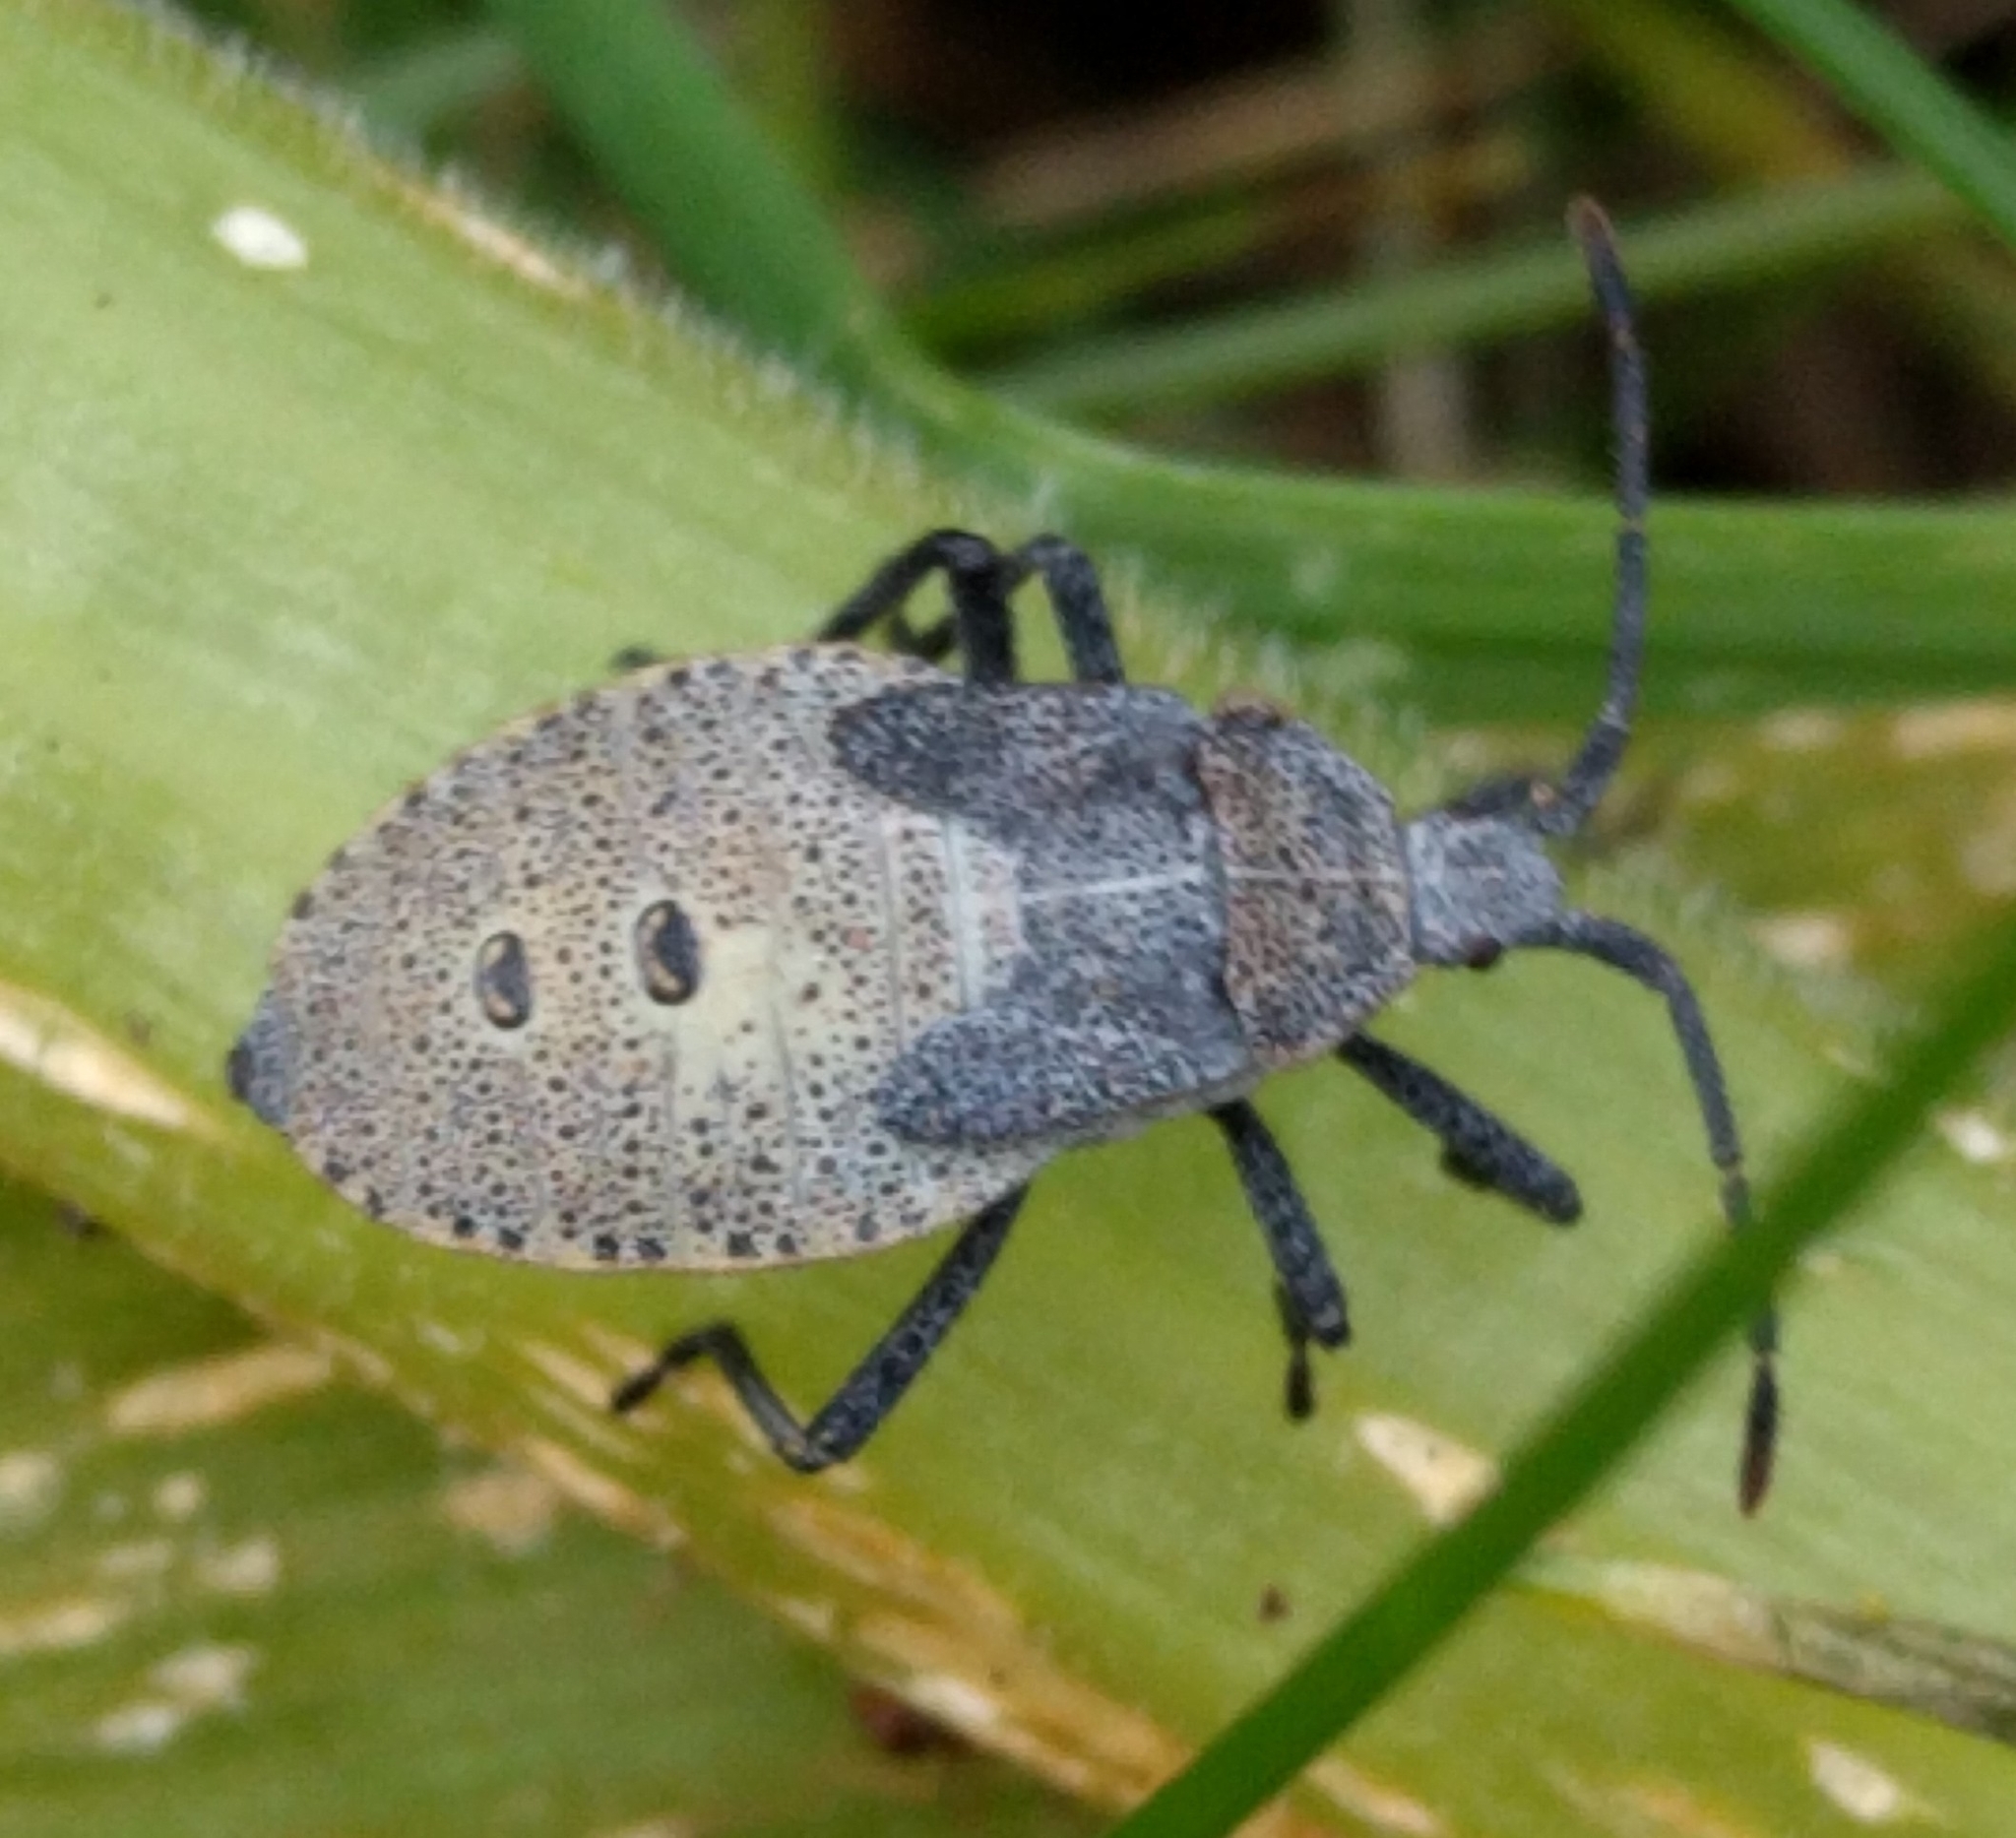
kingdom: Animalia
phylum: Arthropoda
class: Insecta
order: Hemiptera
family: Coreidae
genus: Anasa
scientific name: Anasa tristis
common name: Squash bug
